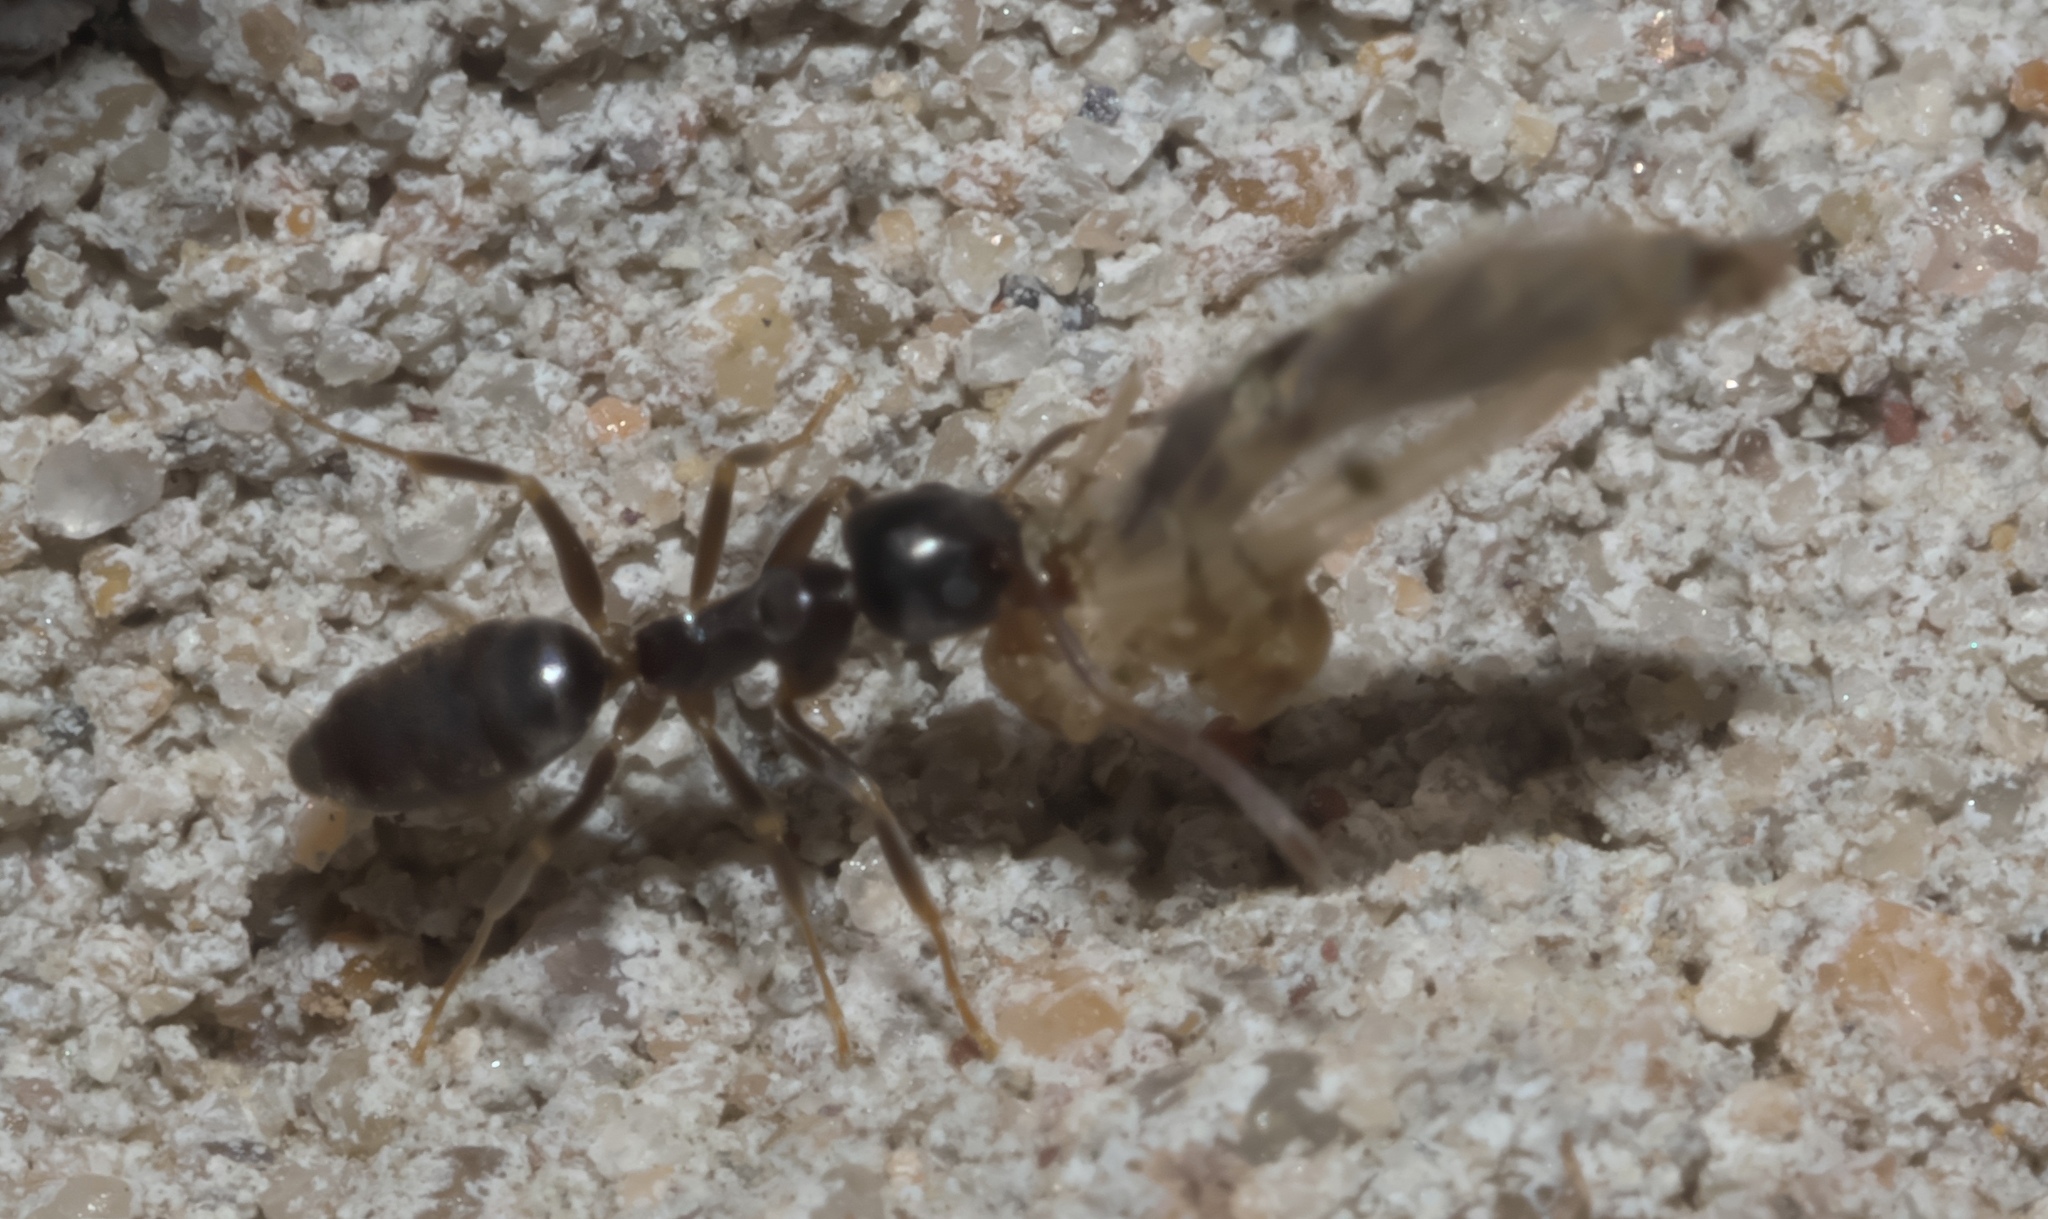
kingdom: Animalia
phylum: Arthropoda
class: Insecta
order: Hymenoptera
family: Formicidae
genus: Tapinoma
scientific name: Tapinoma sessile
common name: Odorous house ant
